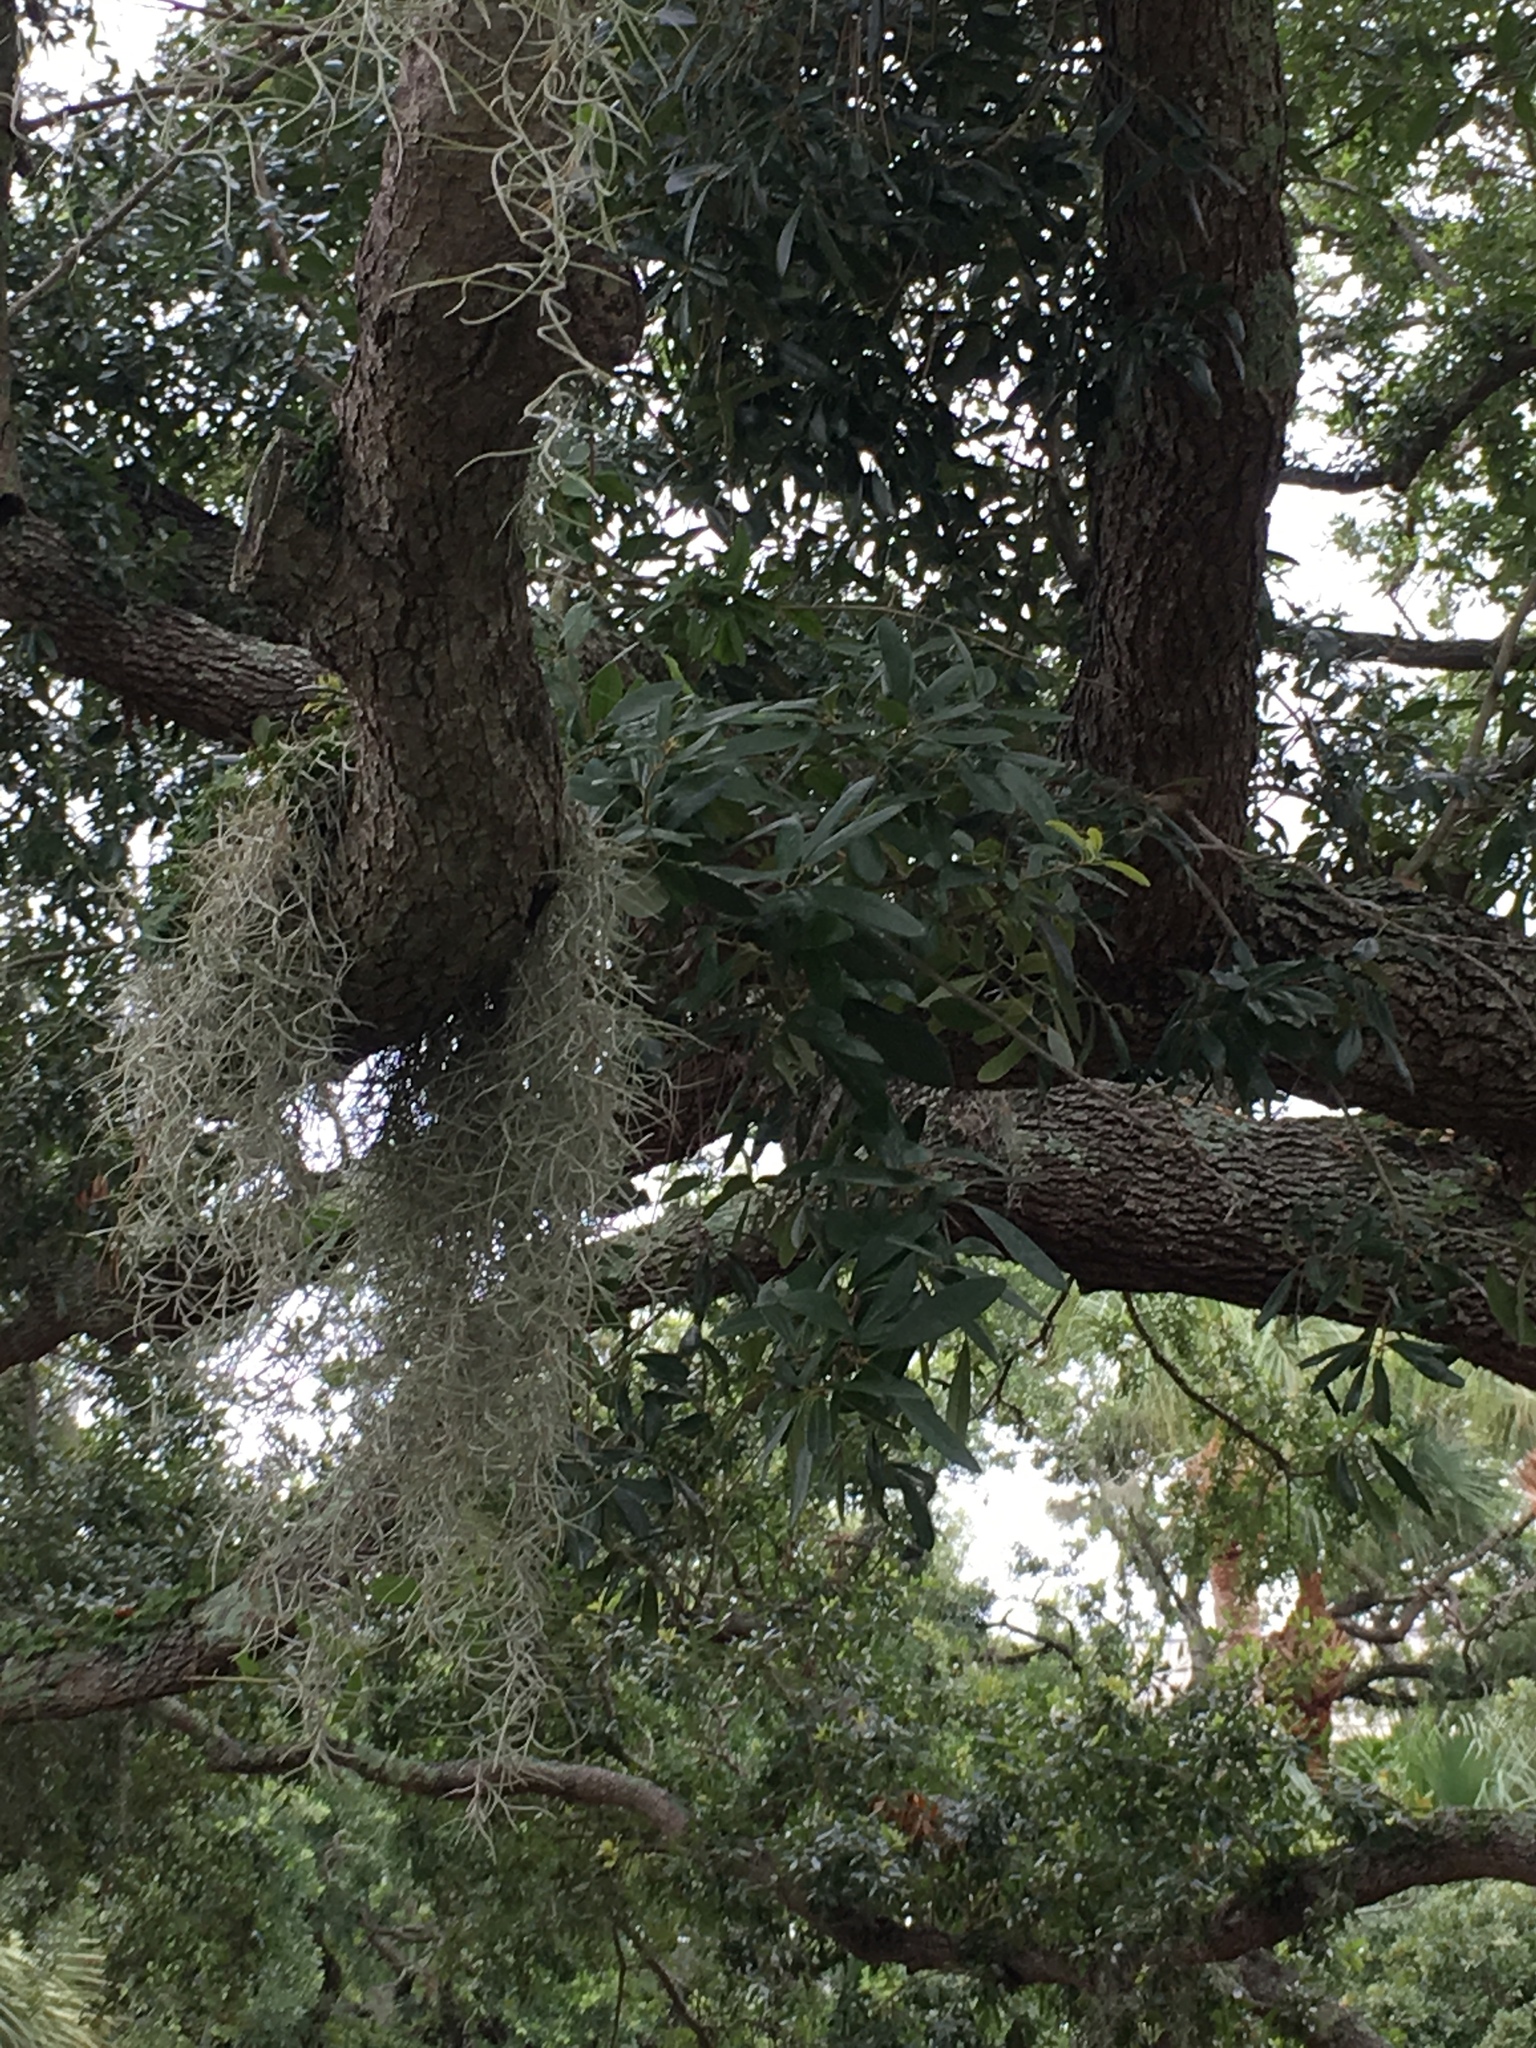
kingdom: Plantae
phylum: Tracheophyta
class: Magnoliopsida
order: Fagales
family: Fagaceae
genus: Quercus
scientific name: Quercus virginiana
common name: Southern live oak
